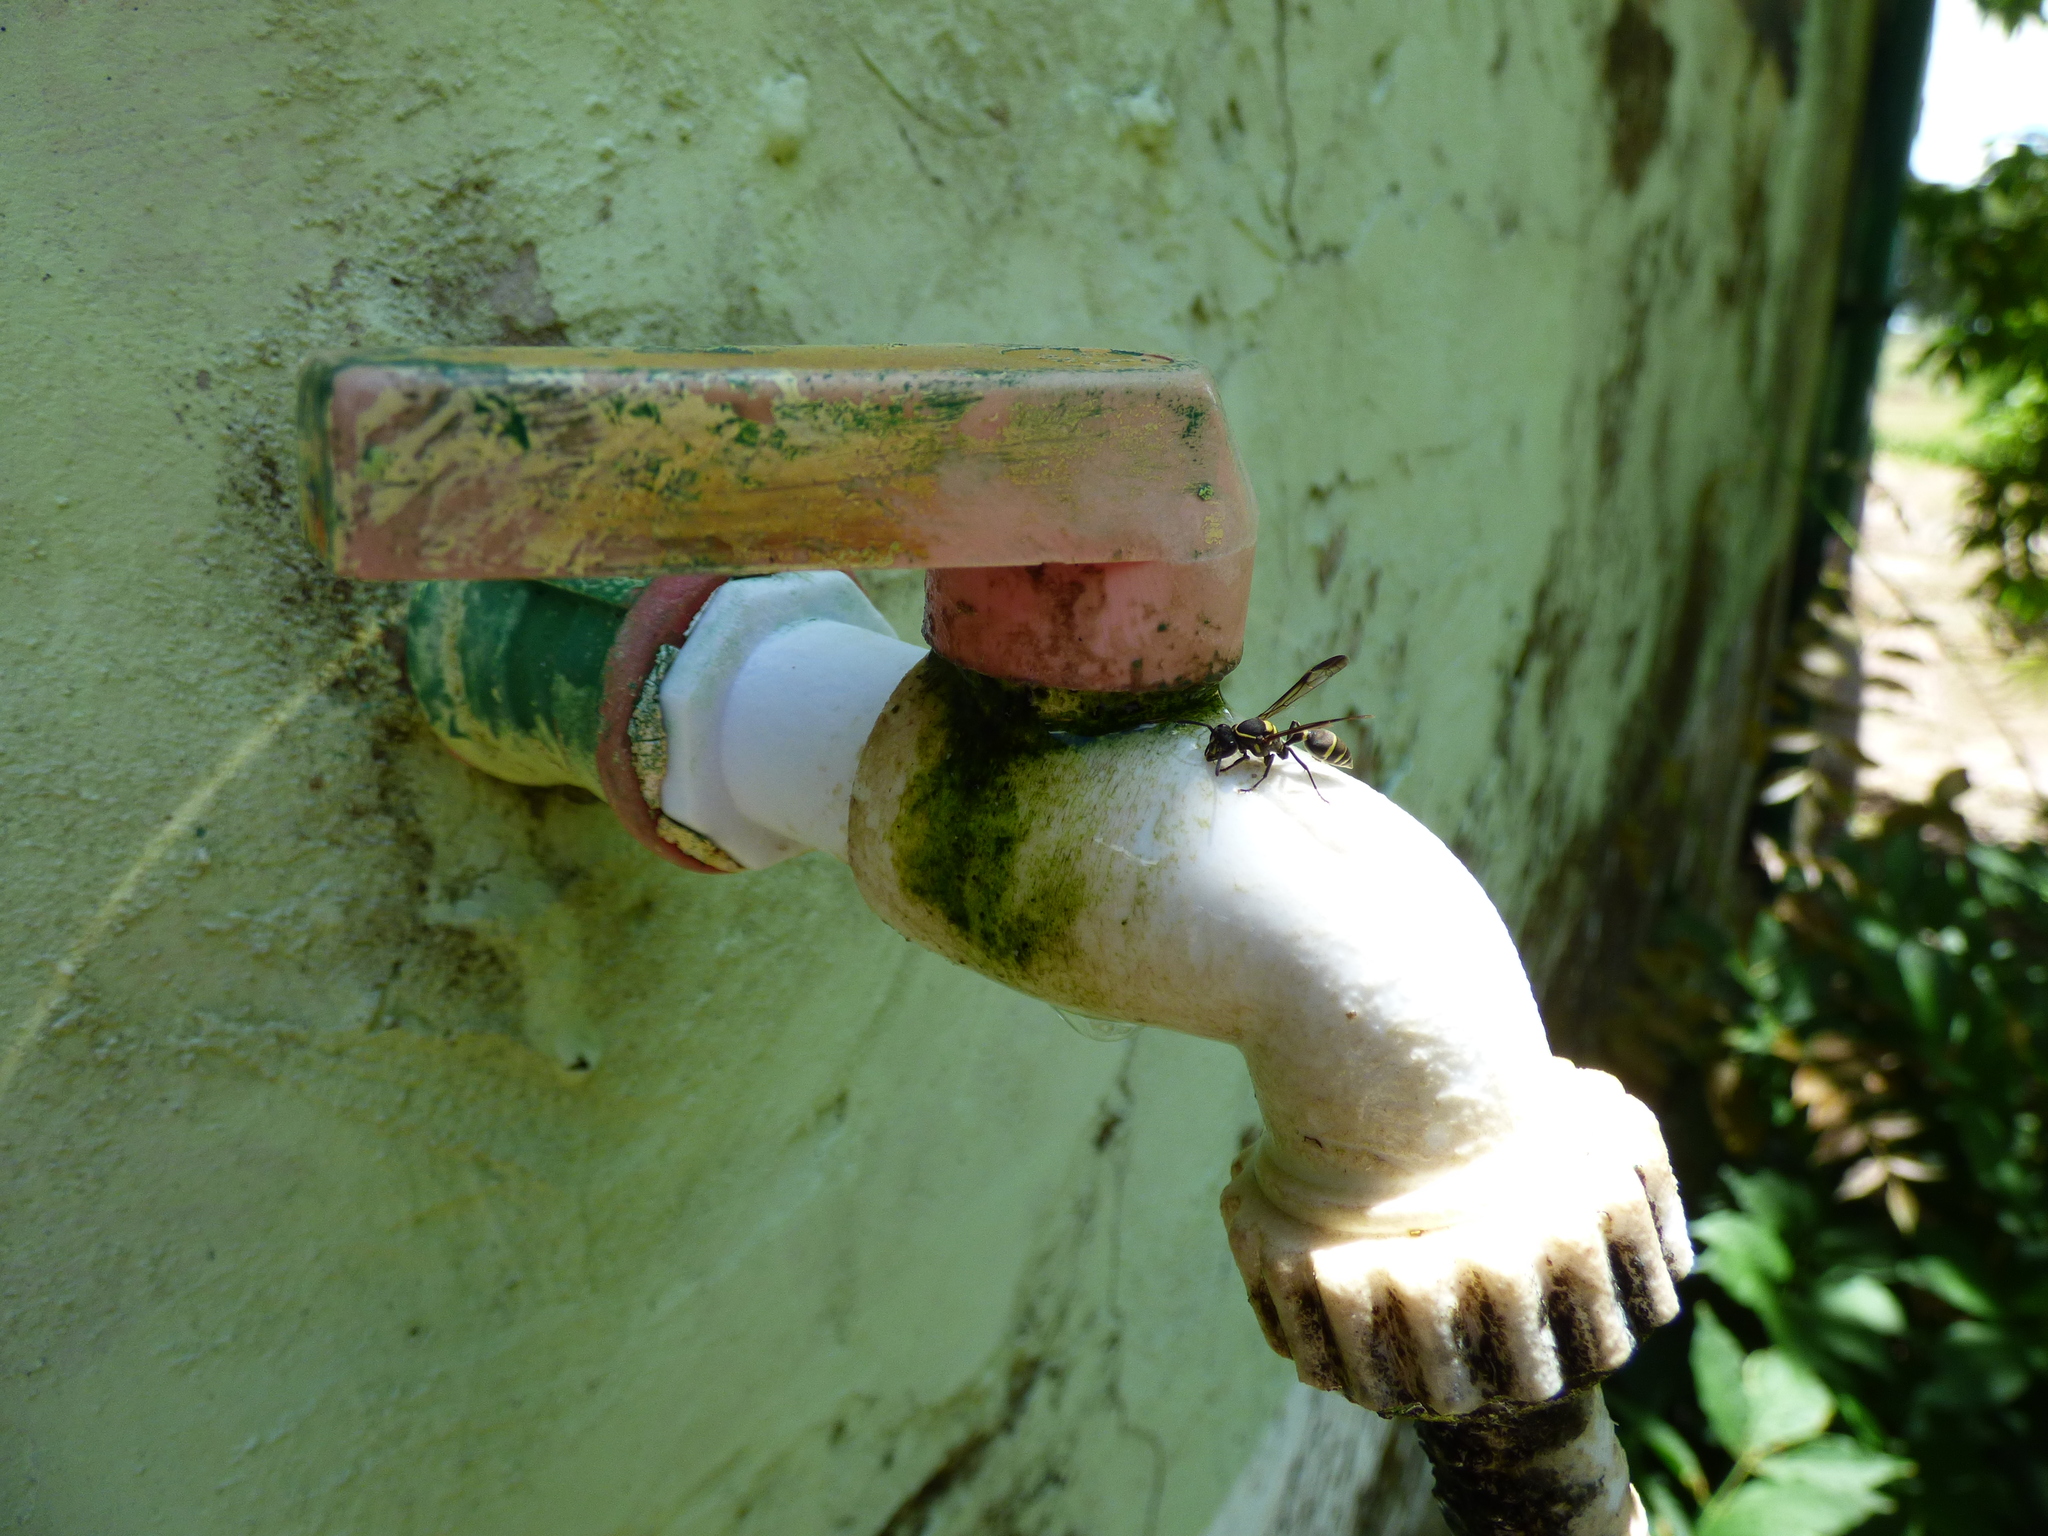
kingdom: Animalia
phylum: Arthropoda
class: Insecta
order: Hymenoptera
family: Eumenidae
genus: Polybia
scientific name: Polybia occidentalis
